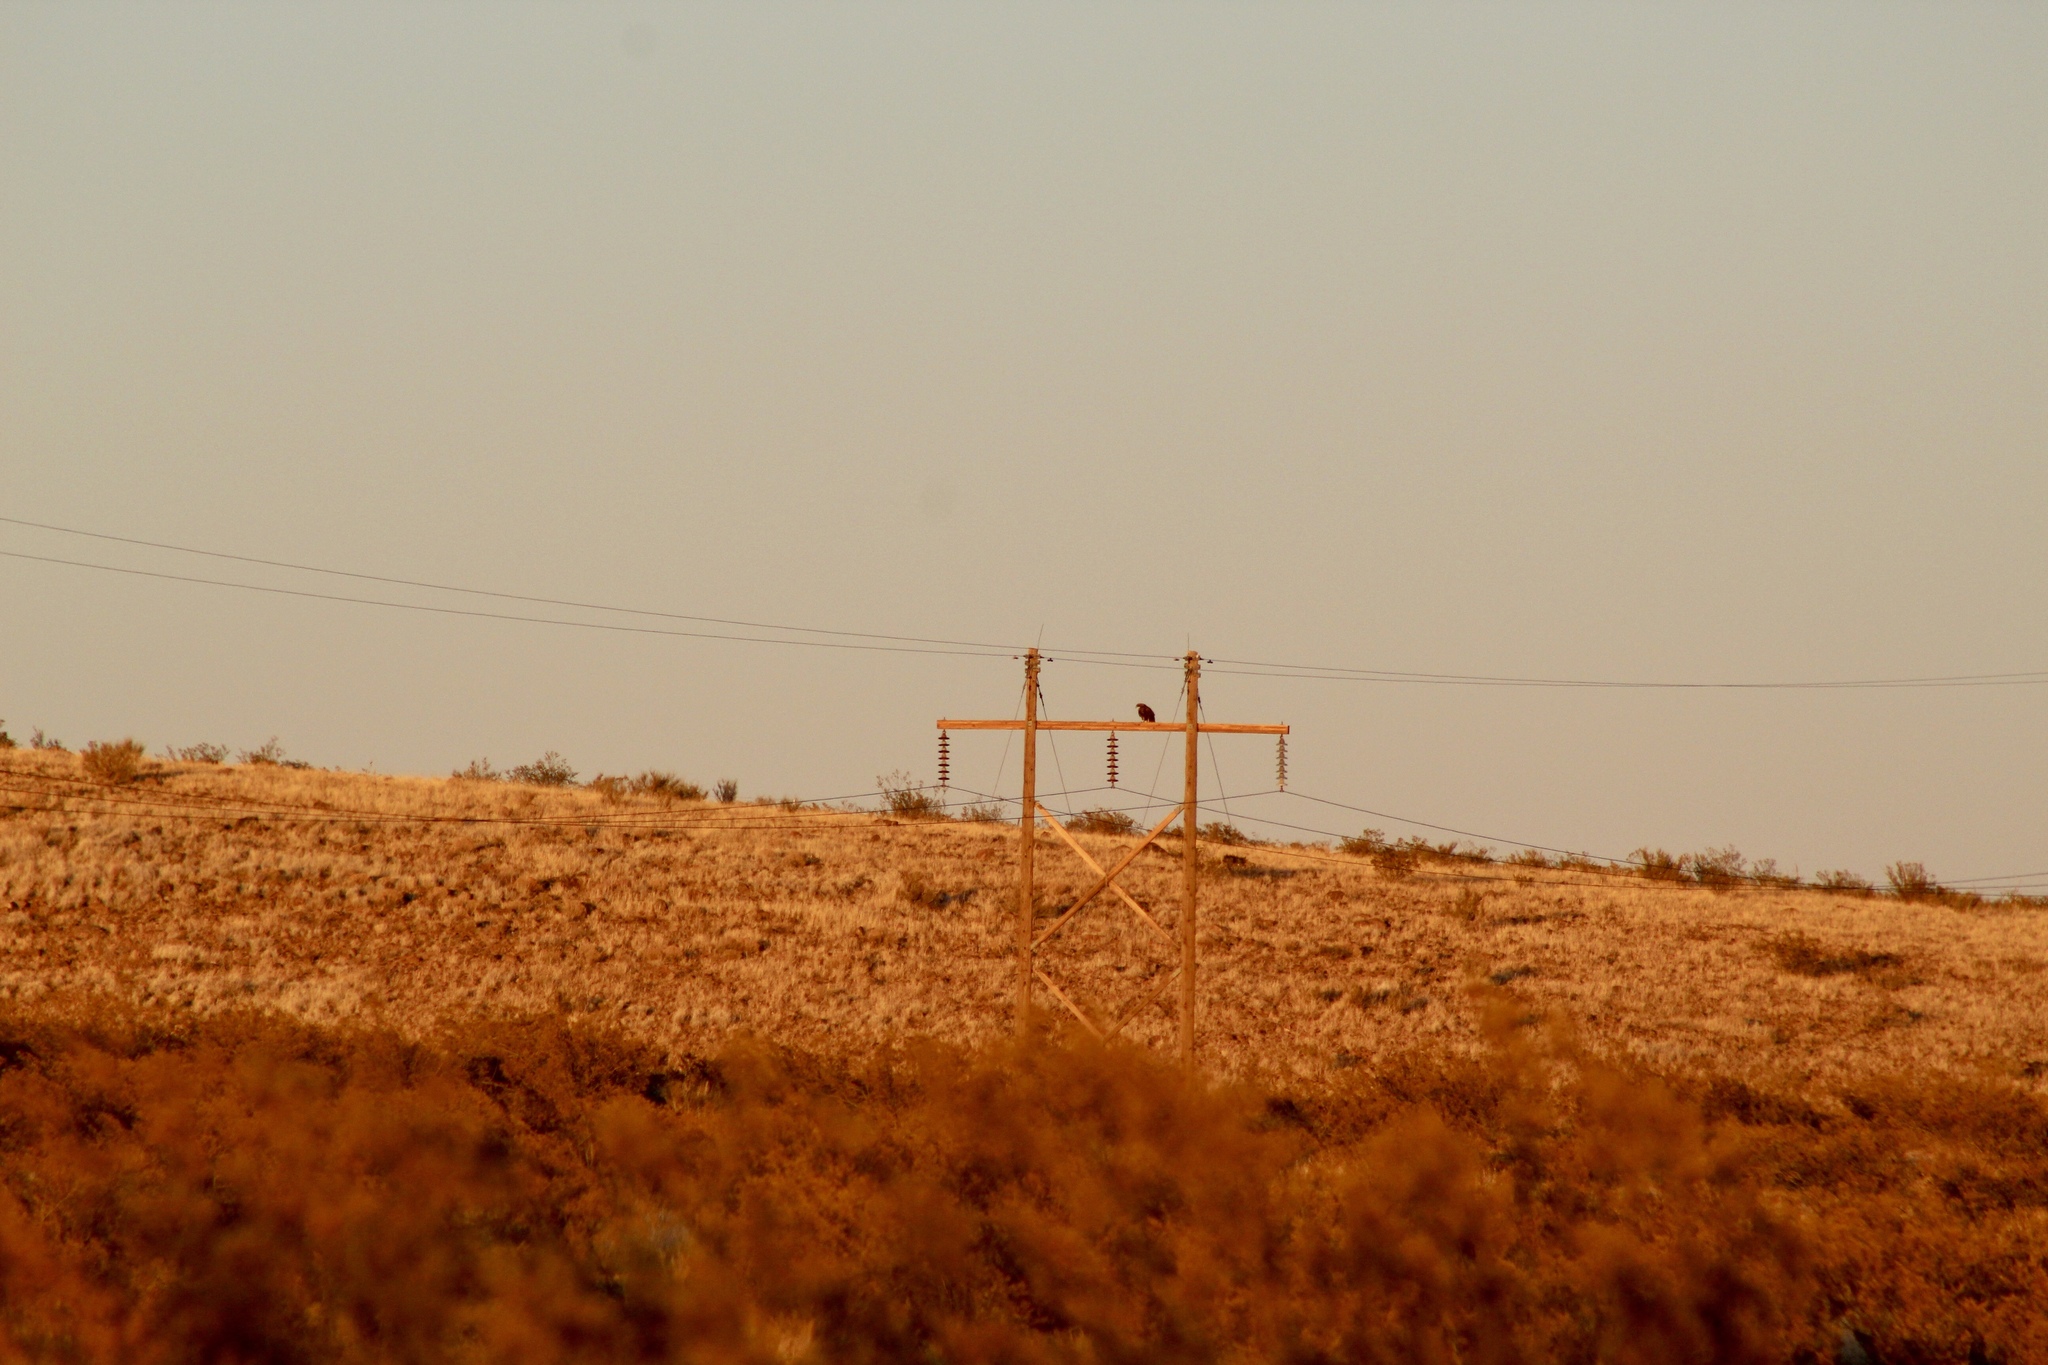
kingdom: Animalia
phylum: Chordata
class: Aves
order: Accipitriformes
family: Accipitridae
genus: Aquila
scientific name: Aquila chrysaetos
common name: Golden eagle
